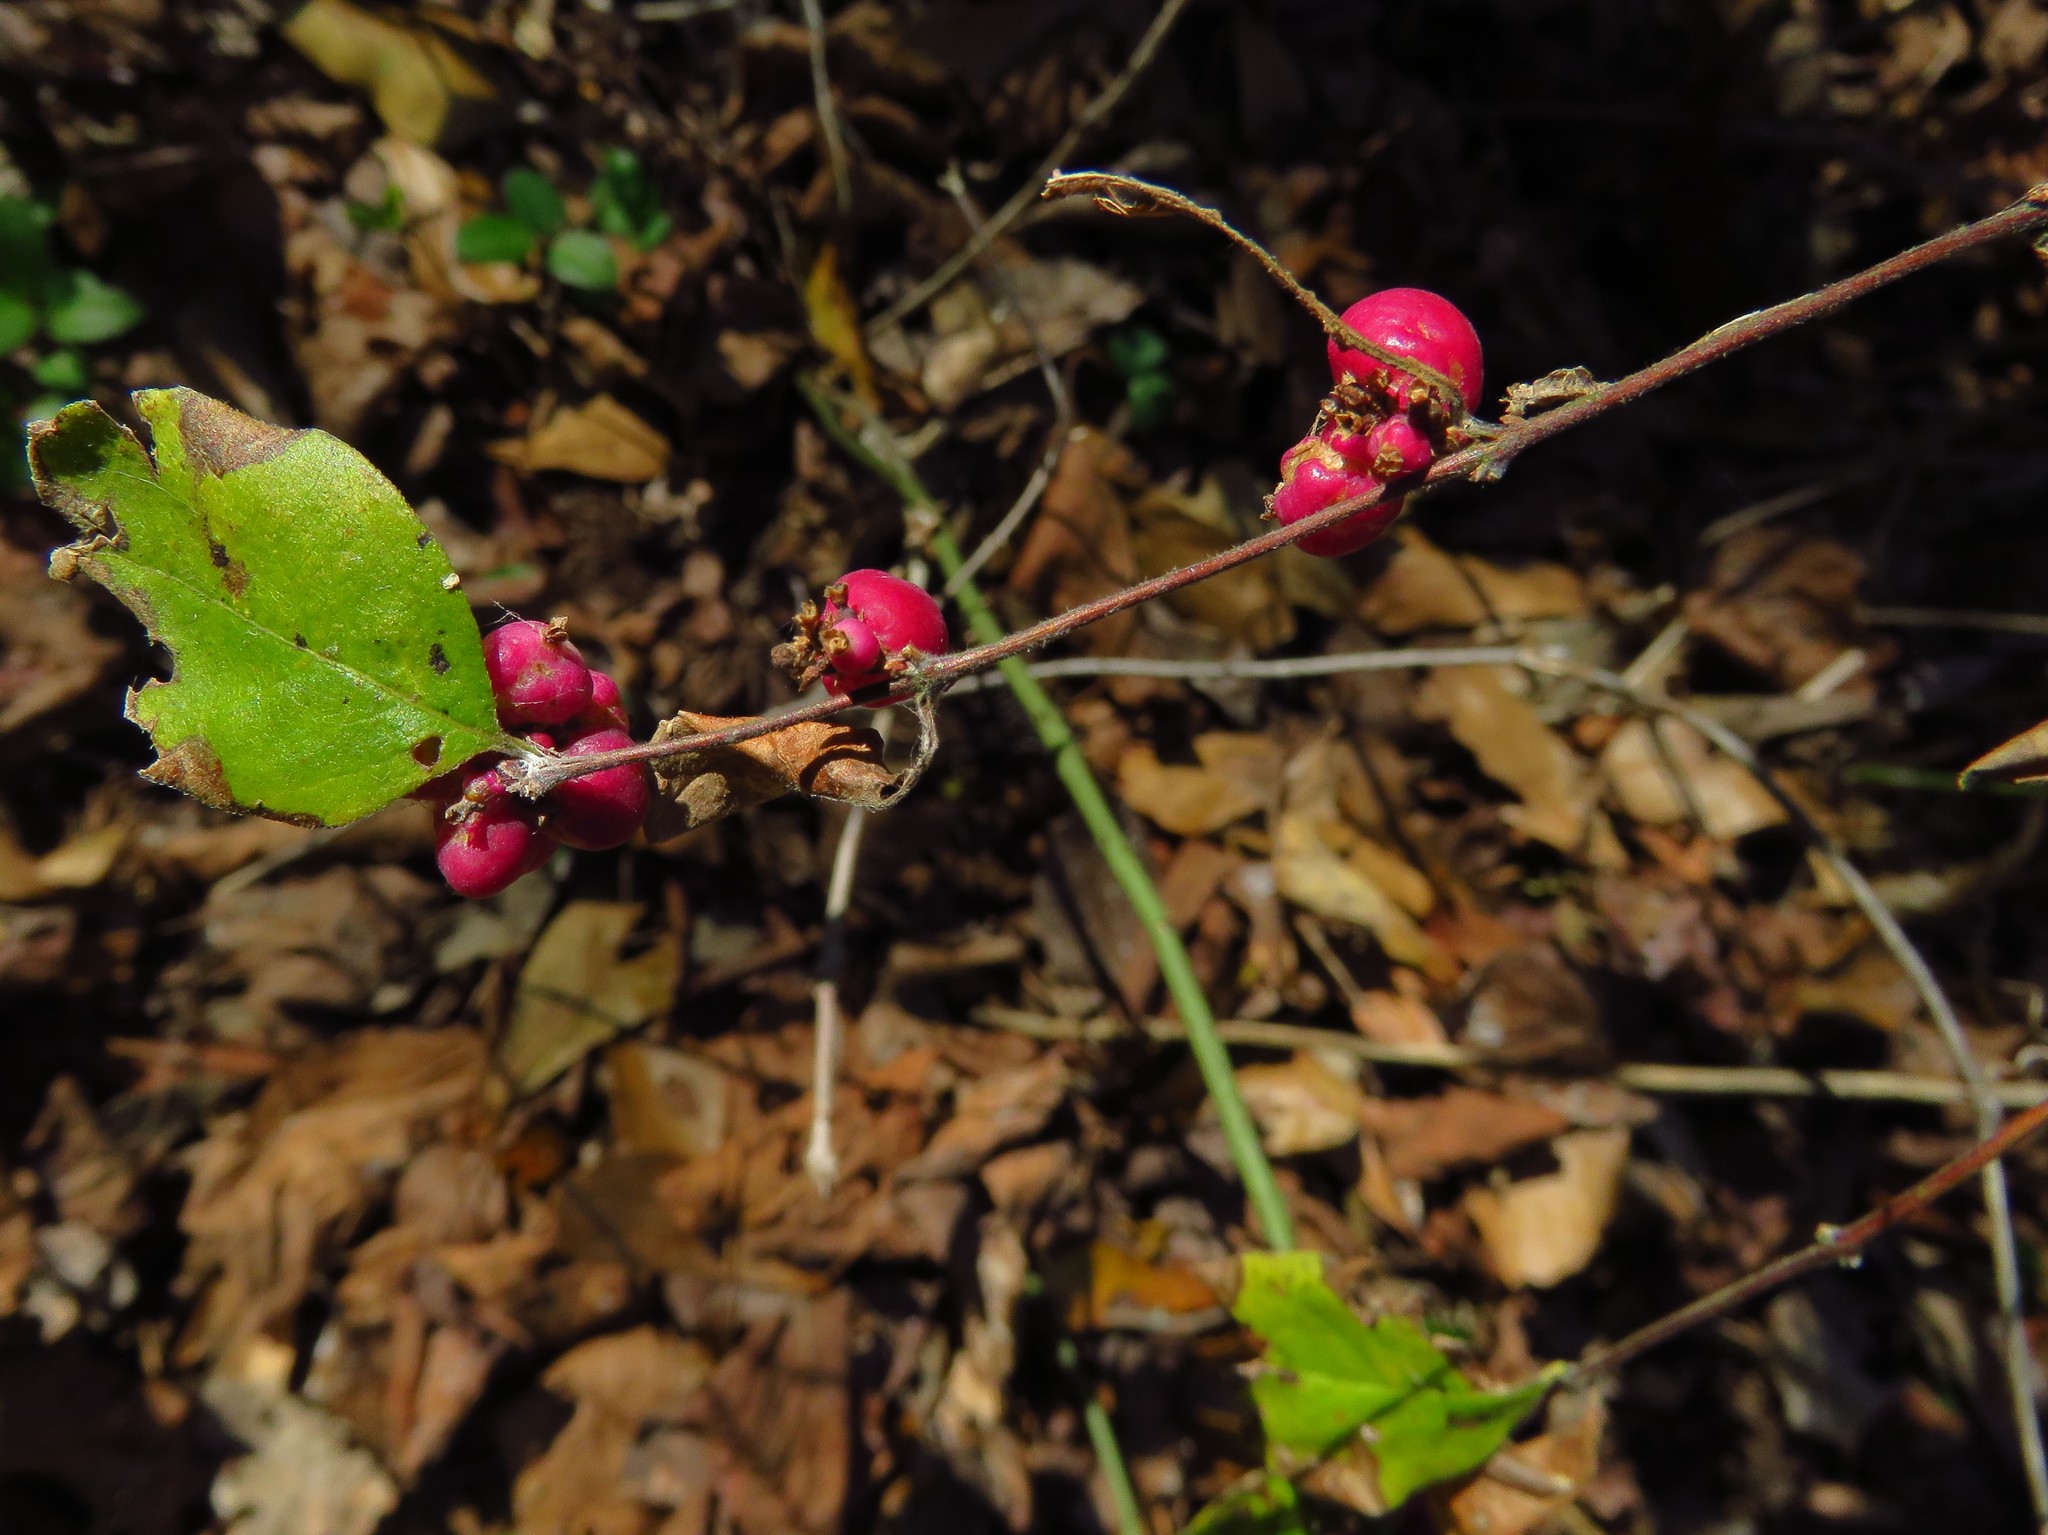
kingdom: Plantae
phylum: Tracheophyta
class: Magnoliopsida
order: Dipsacales
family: Caprifoliaceae
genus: Symphoricarpos
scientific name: Symphoricarpos orbiculatus
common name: Coralberry
